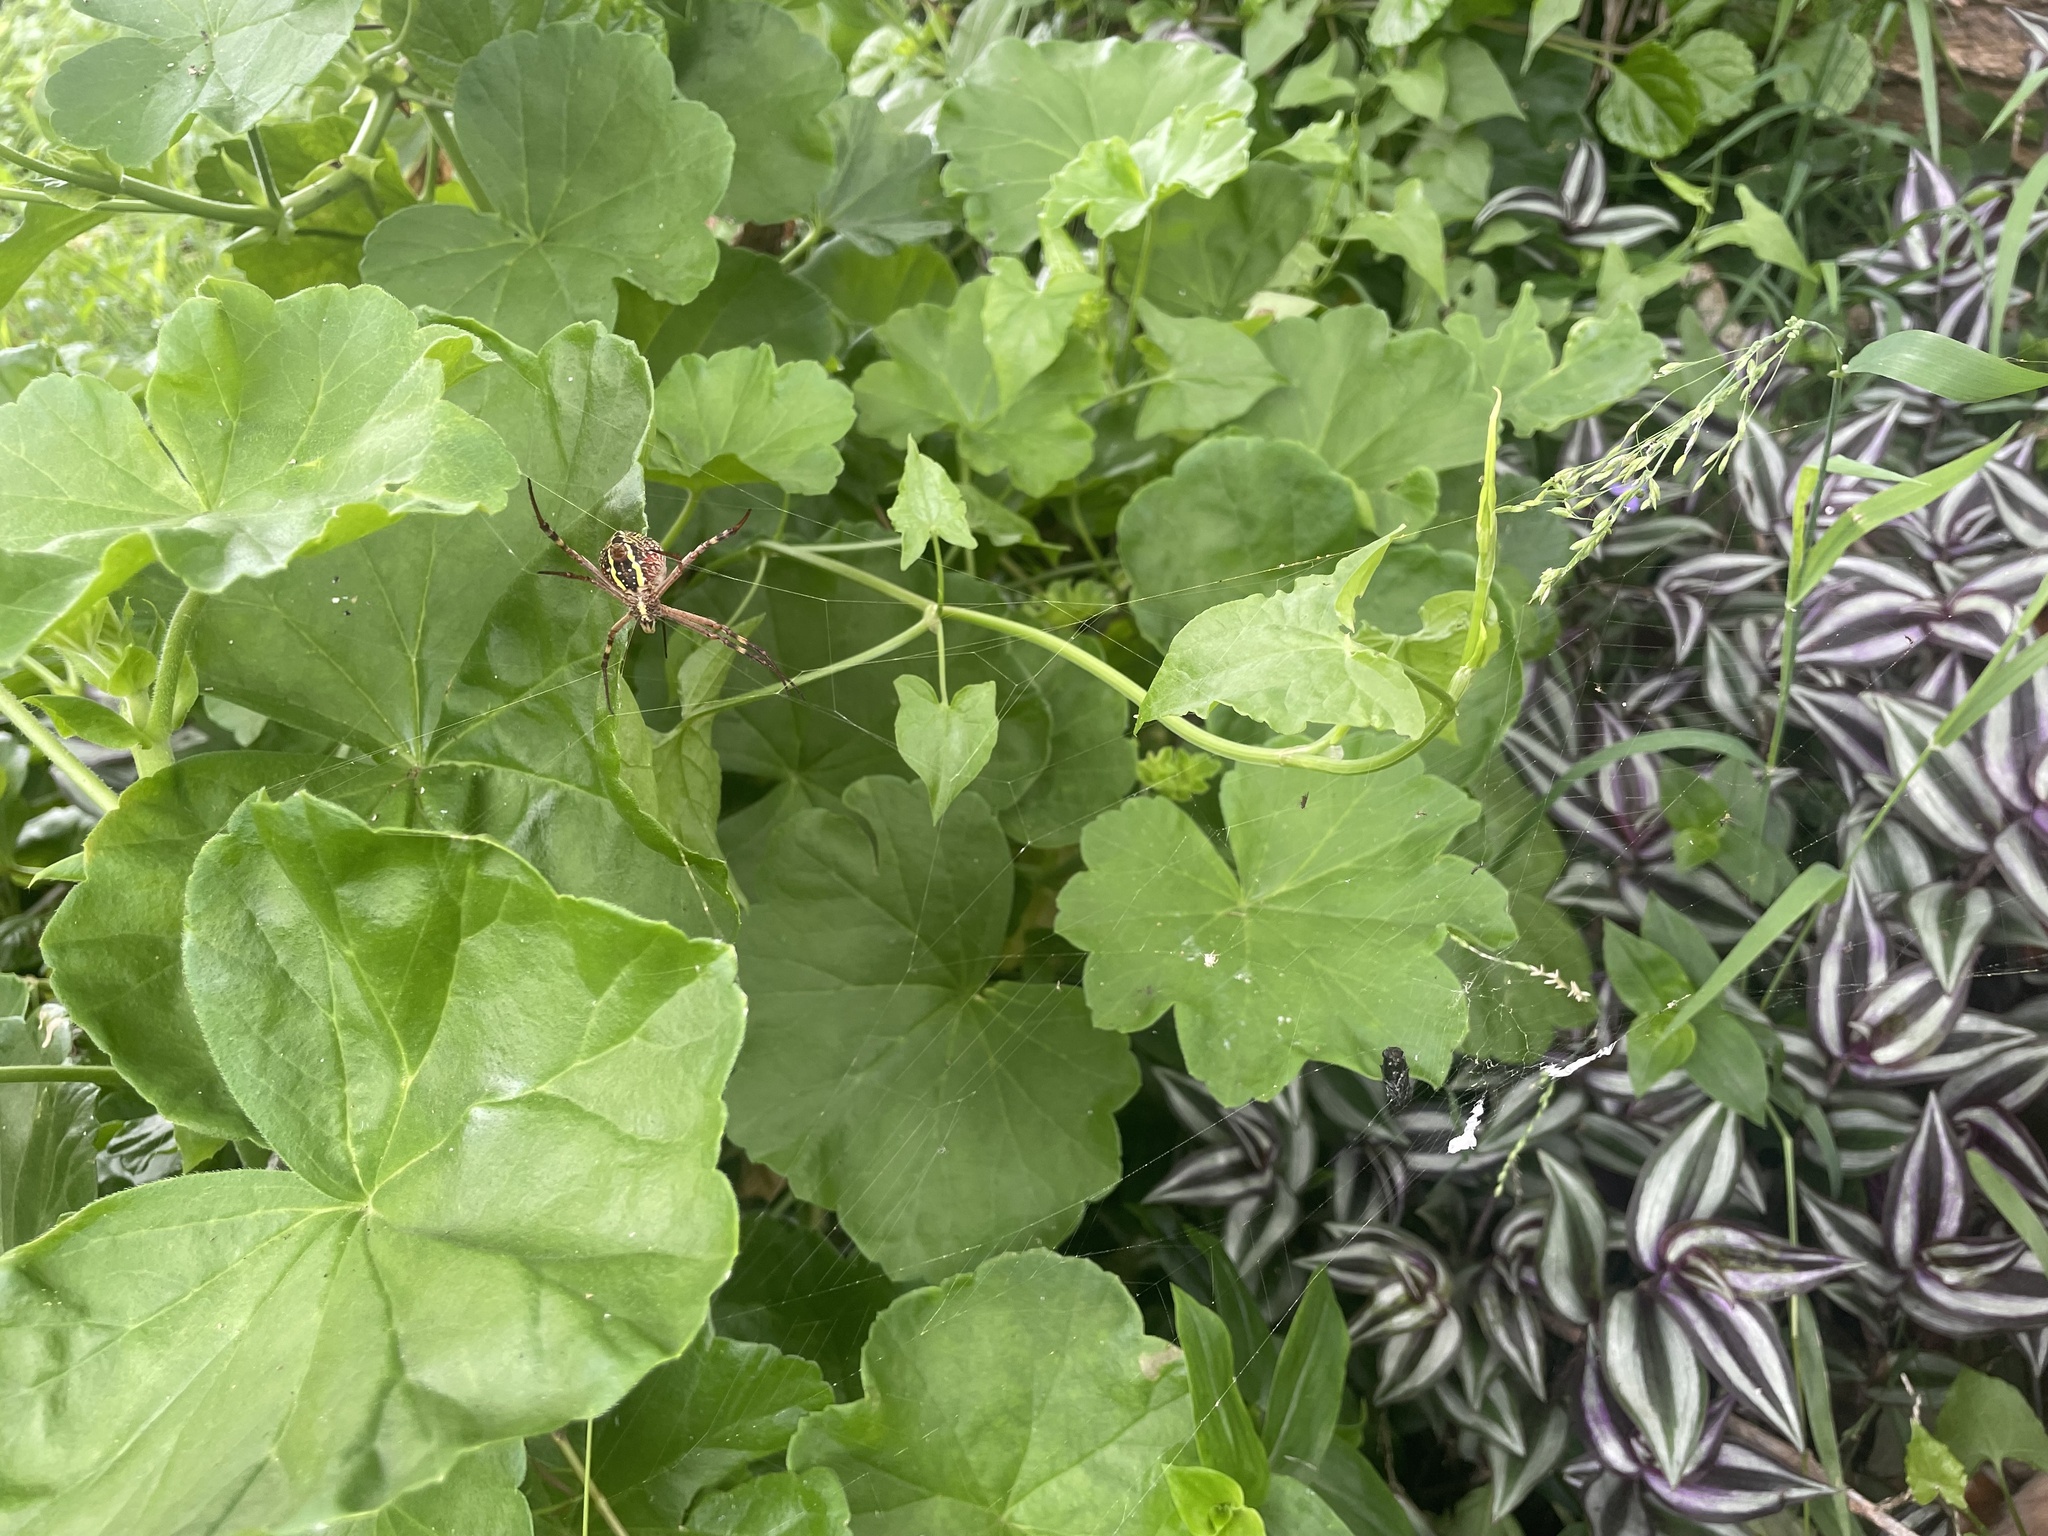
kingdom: Animalia
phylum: Arthropoda
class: Arachnida
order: Araneae
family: Araneidae
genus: Argiope
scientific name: Argiope keyserlingi
